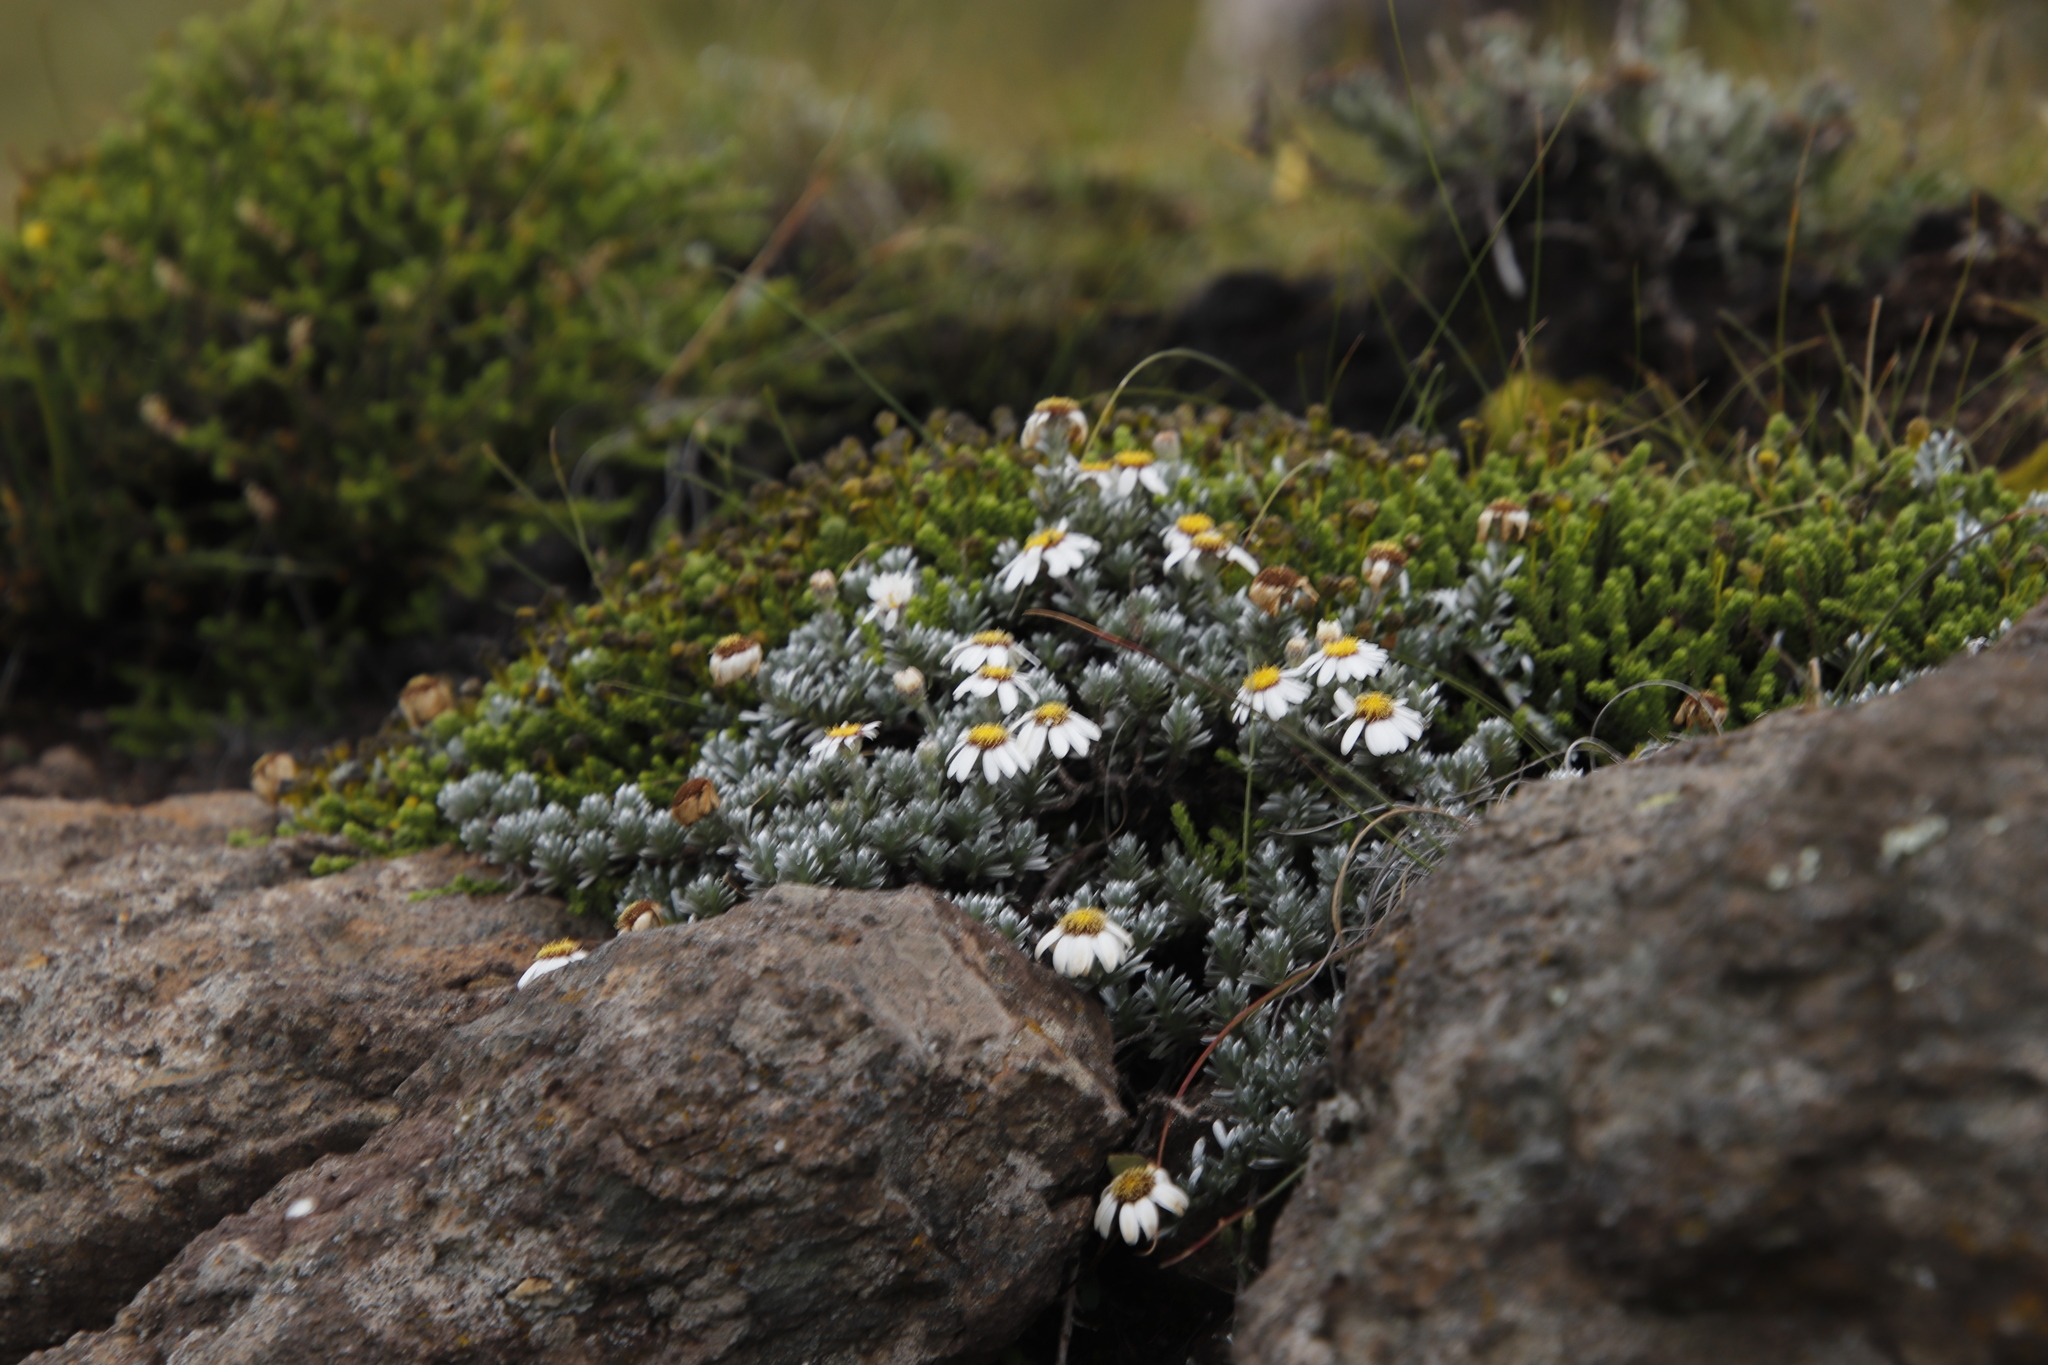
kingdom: Plantae
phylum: Tracheophyta
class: Magnoliopsida
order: Asterales
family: Asteraceae
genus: Eumorphia
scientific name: Eumorphia prostrata
